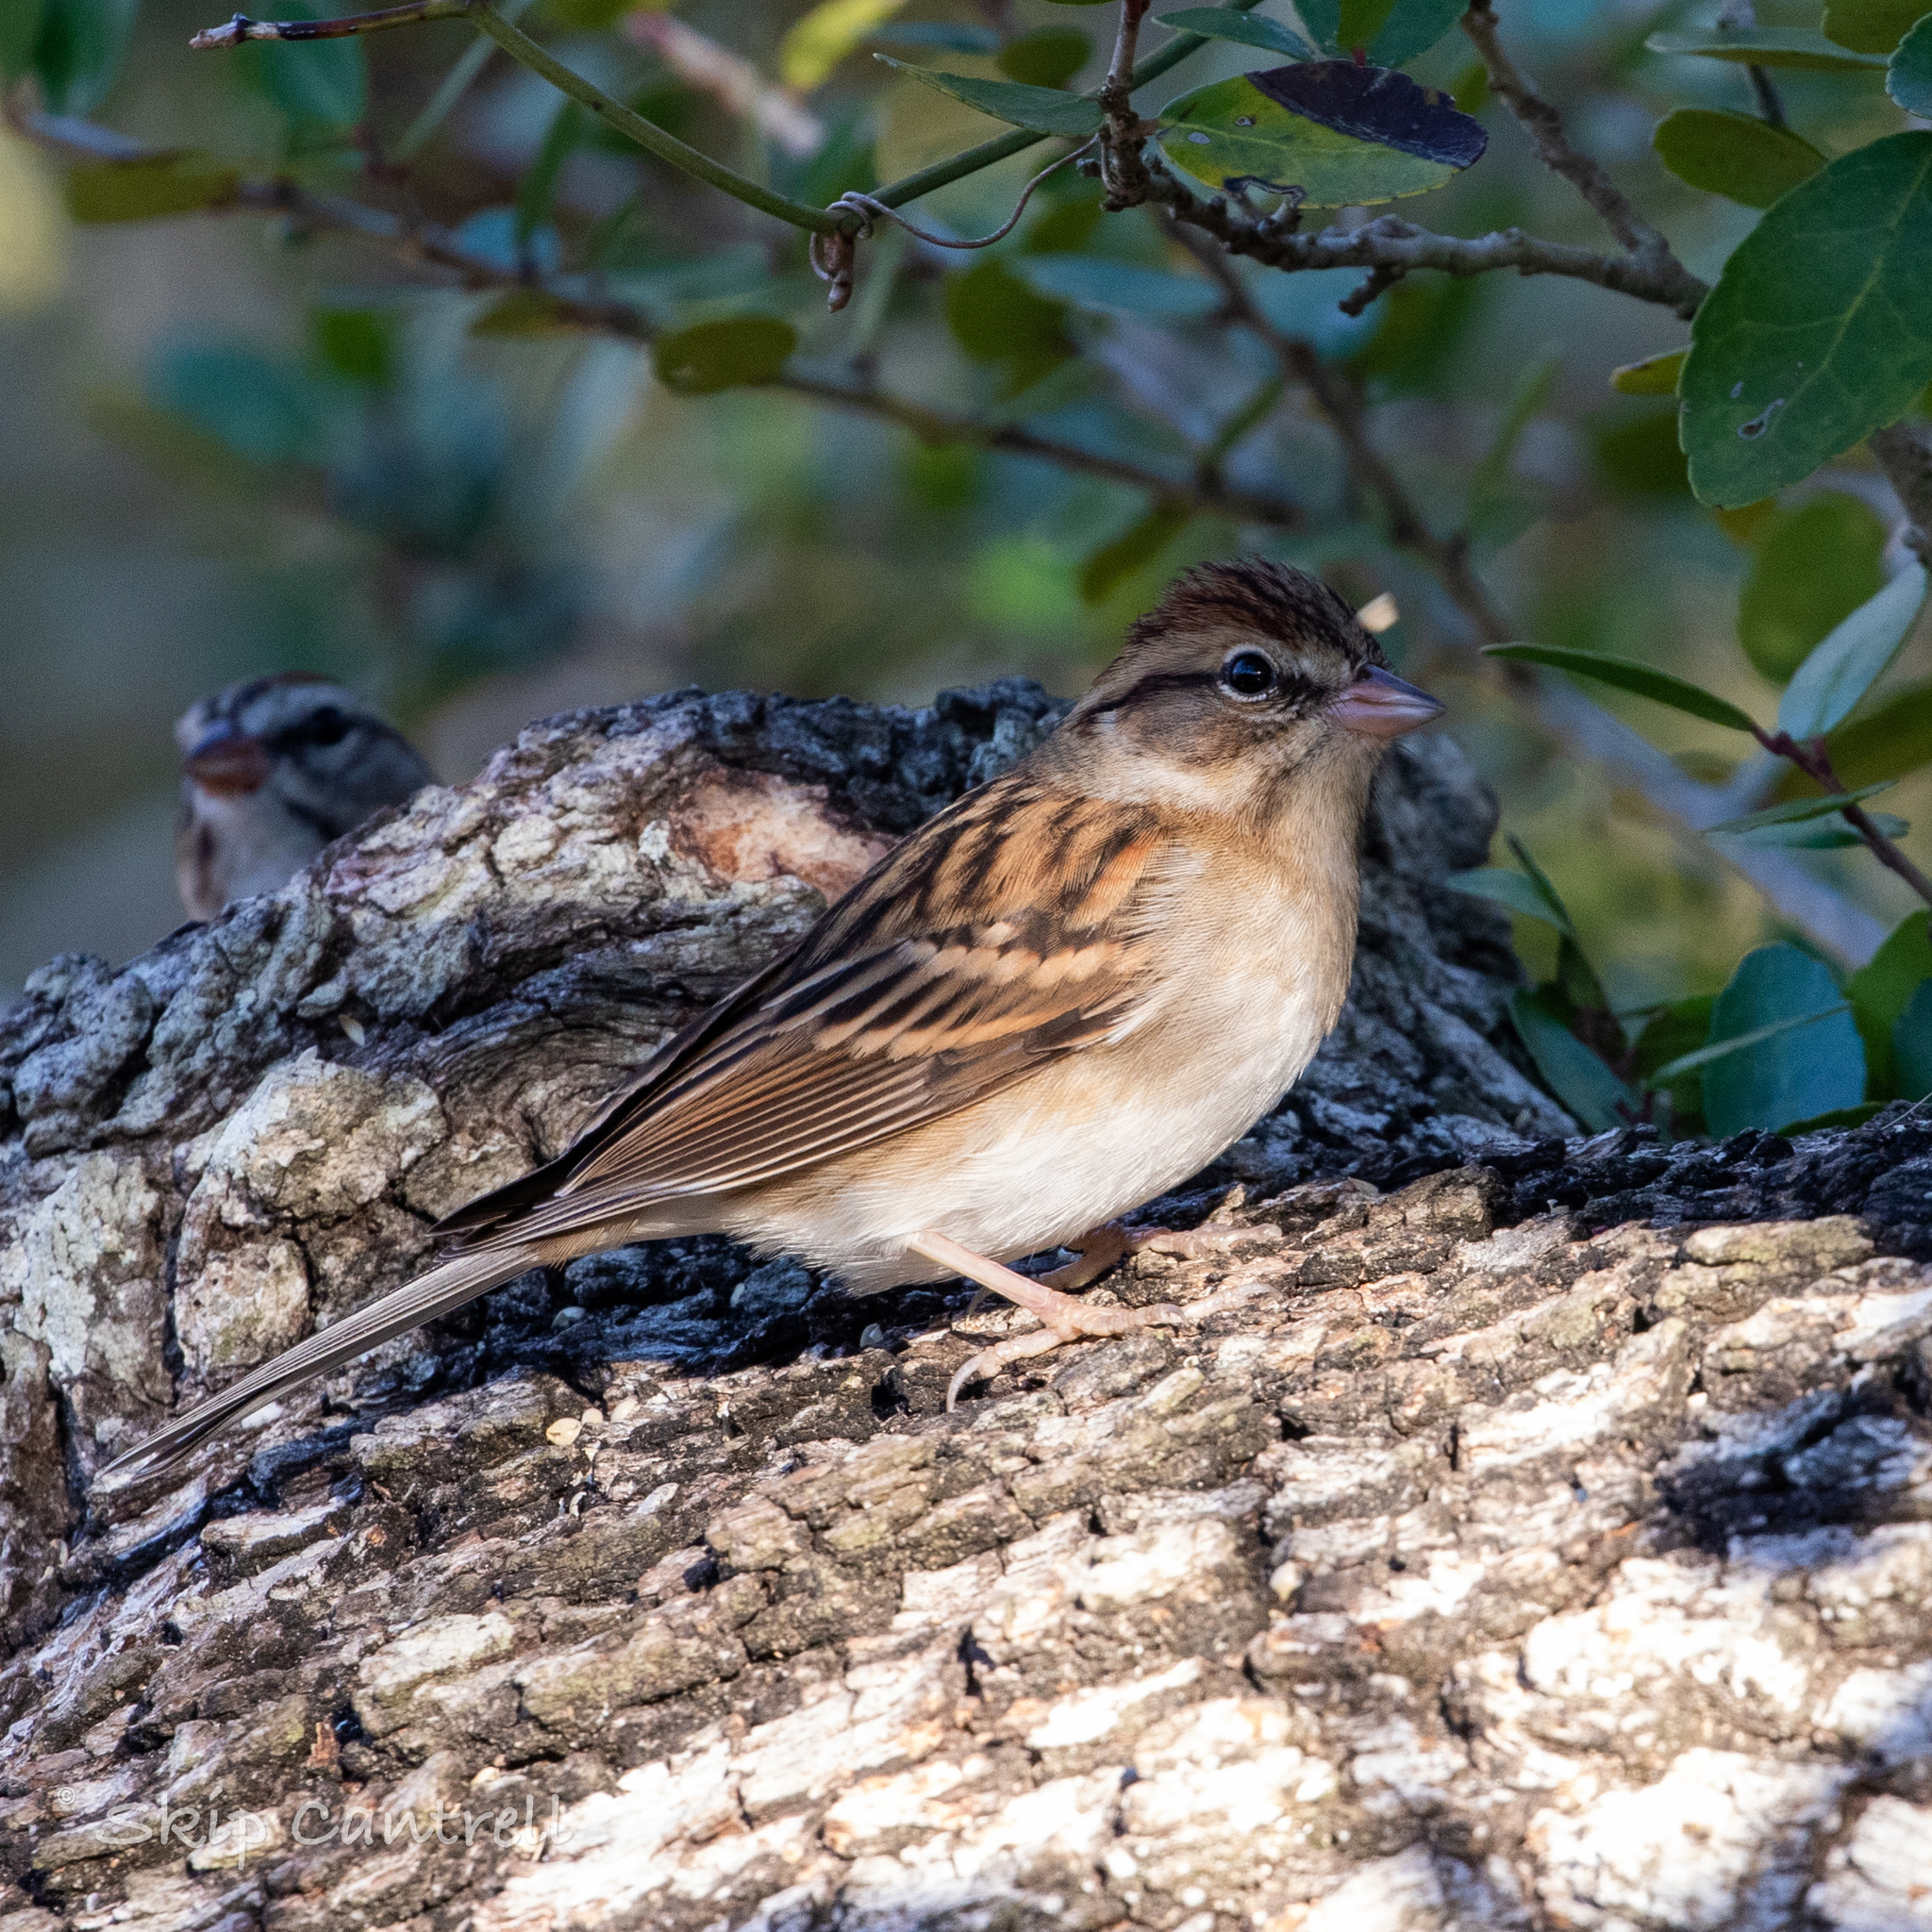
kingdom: Animalia
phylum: Chordata
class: Aves
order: Passeriformes
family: Passerellidae
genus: Spizella
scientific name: Spizella passerina
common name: Chipping sparrow
